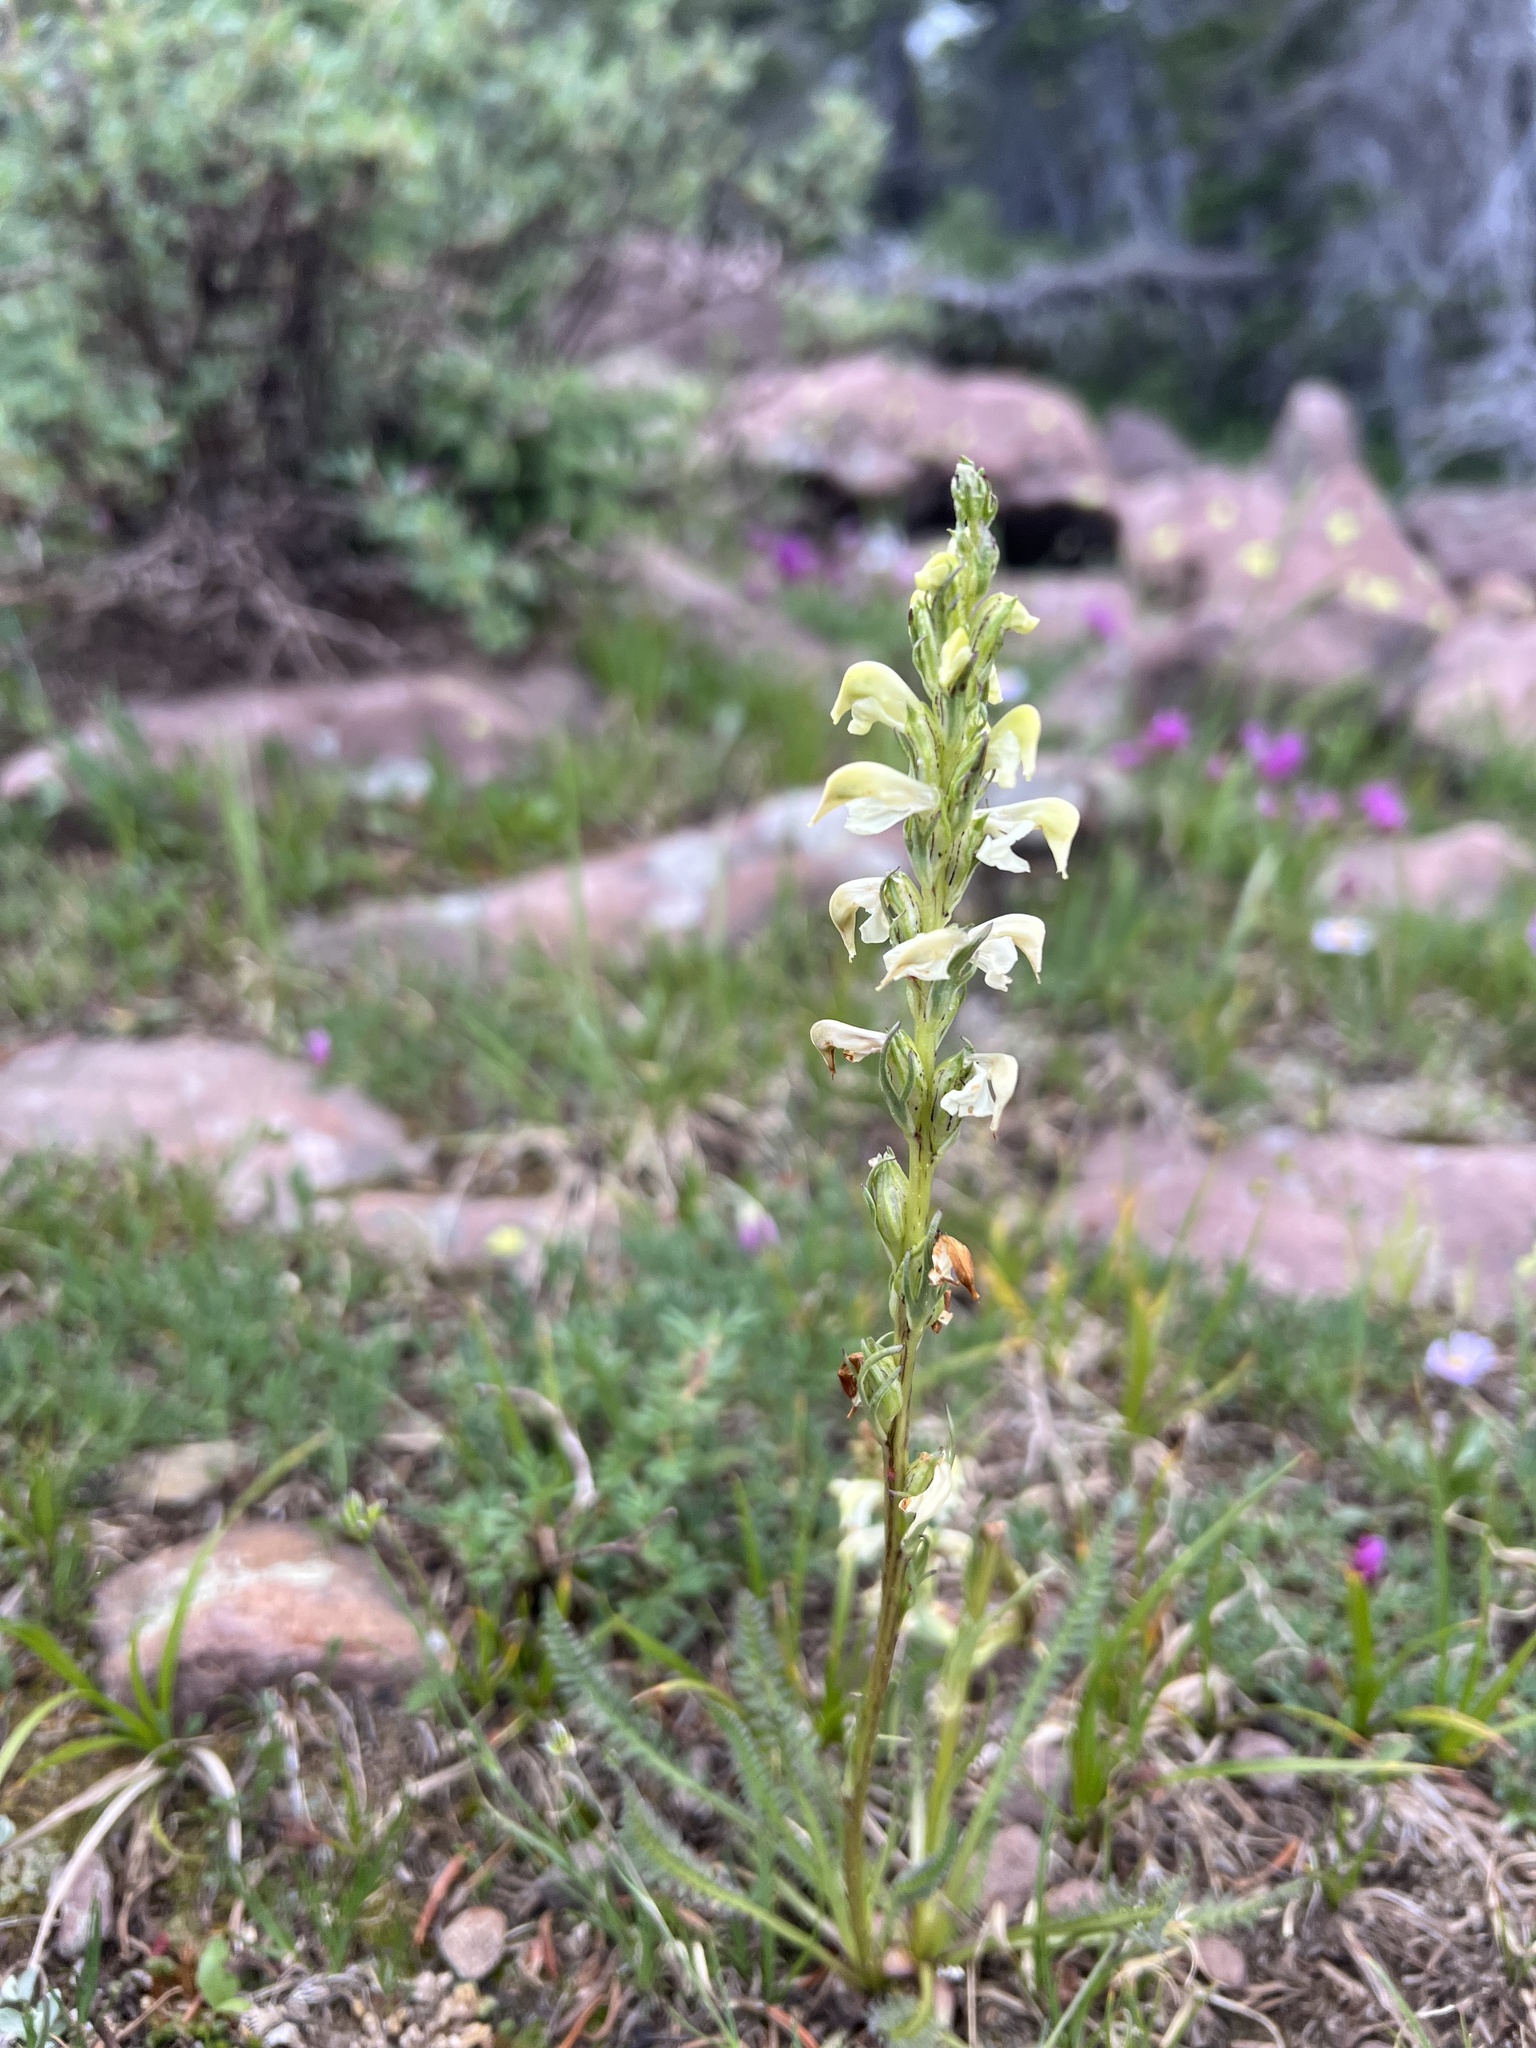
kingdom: Plantae
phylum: Tracheophyta
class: Magnoliopsida
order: Lamiales
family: Orobanchaceae
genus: Pedicularis
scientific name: Pedicularis parryi
